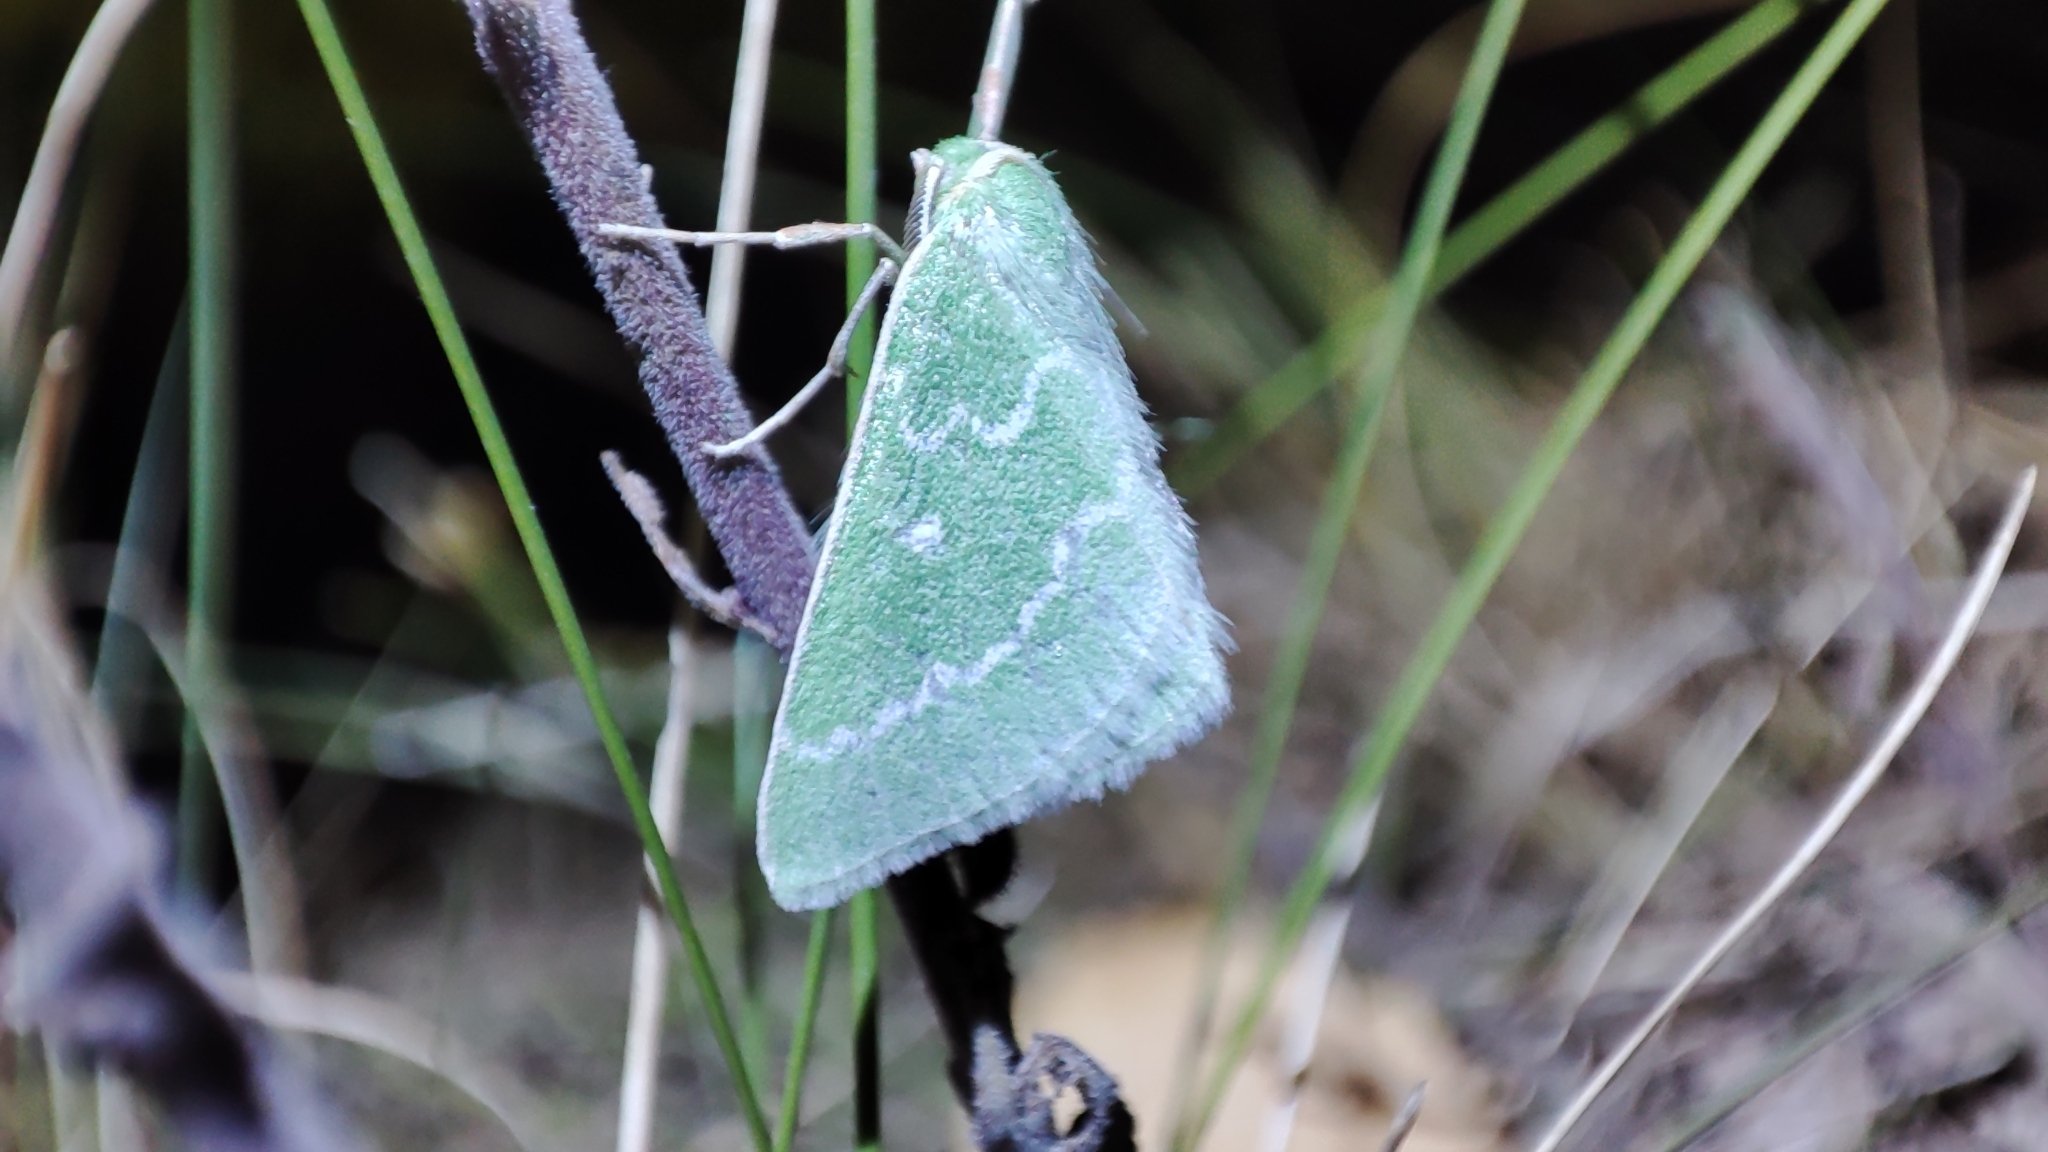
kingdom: Animalia
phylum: Arthropoda
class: Insecta
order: Lepidoptera
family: Geometridae
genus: Thetidia
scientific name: Thetidia smaragdaria
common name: Essex emerald
